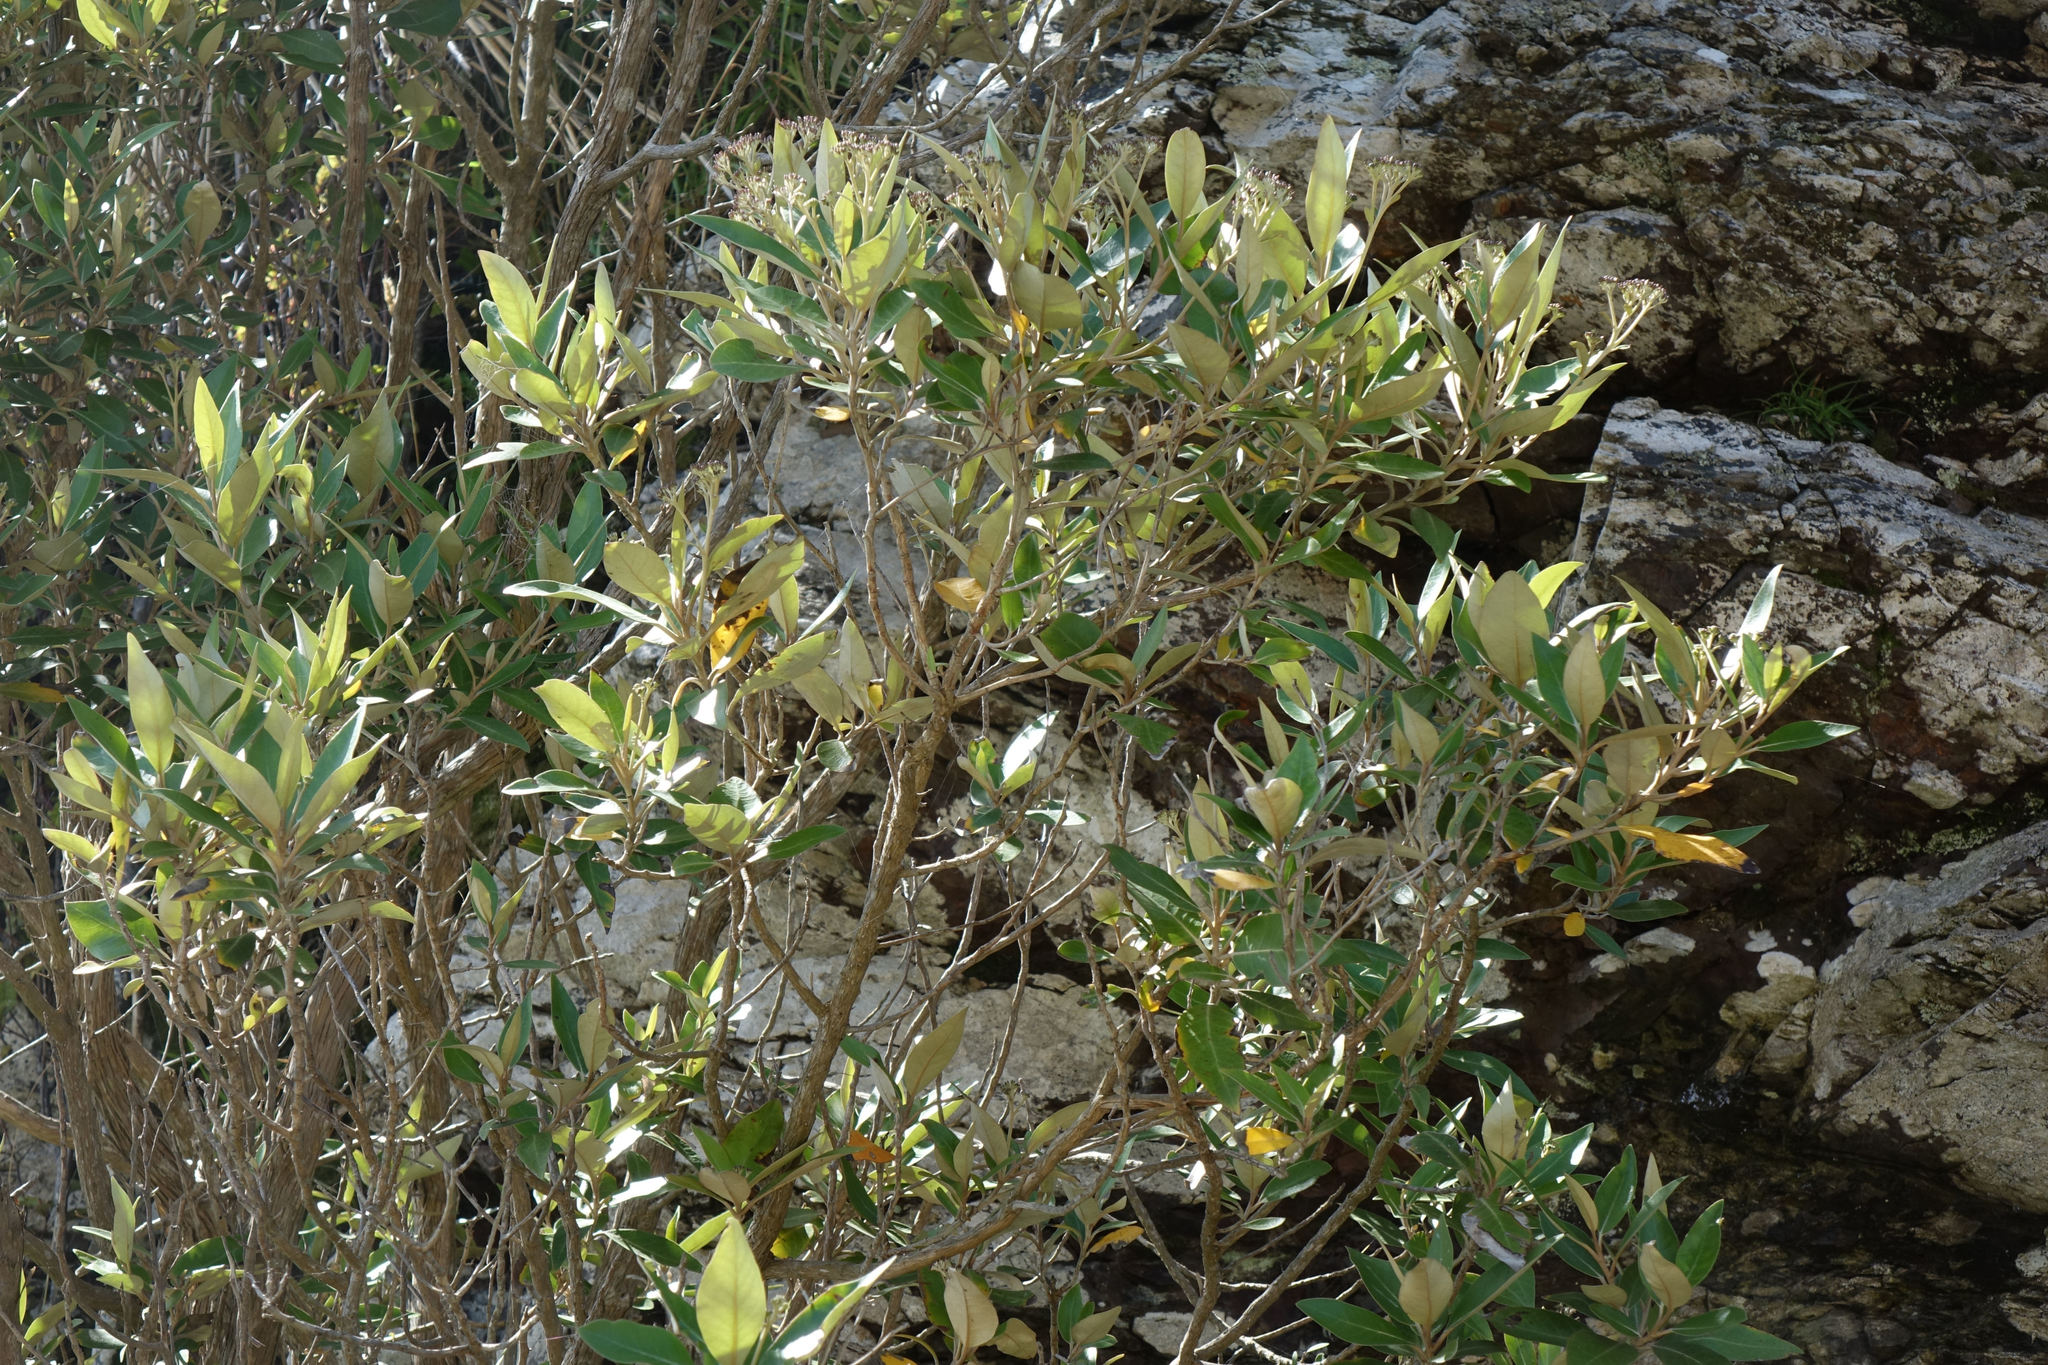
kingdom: Plantae
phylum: Tracheophyta
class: Magnoliopsida
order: Asterales
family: Asteraceae
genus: Olearia
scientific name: Olearia avicenniifolia
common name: Mangrove-leaf daisybush
